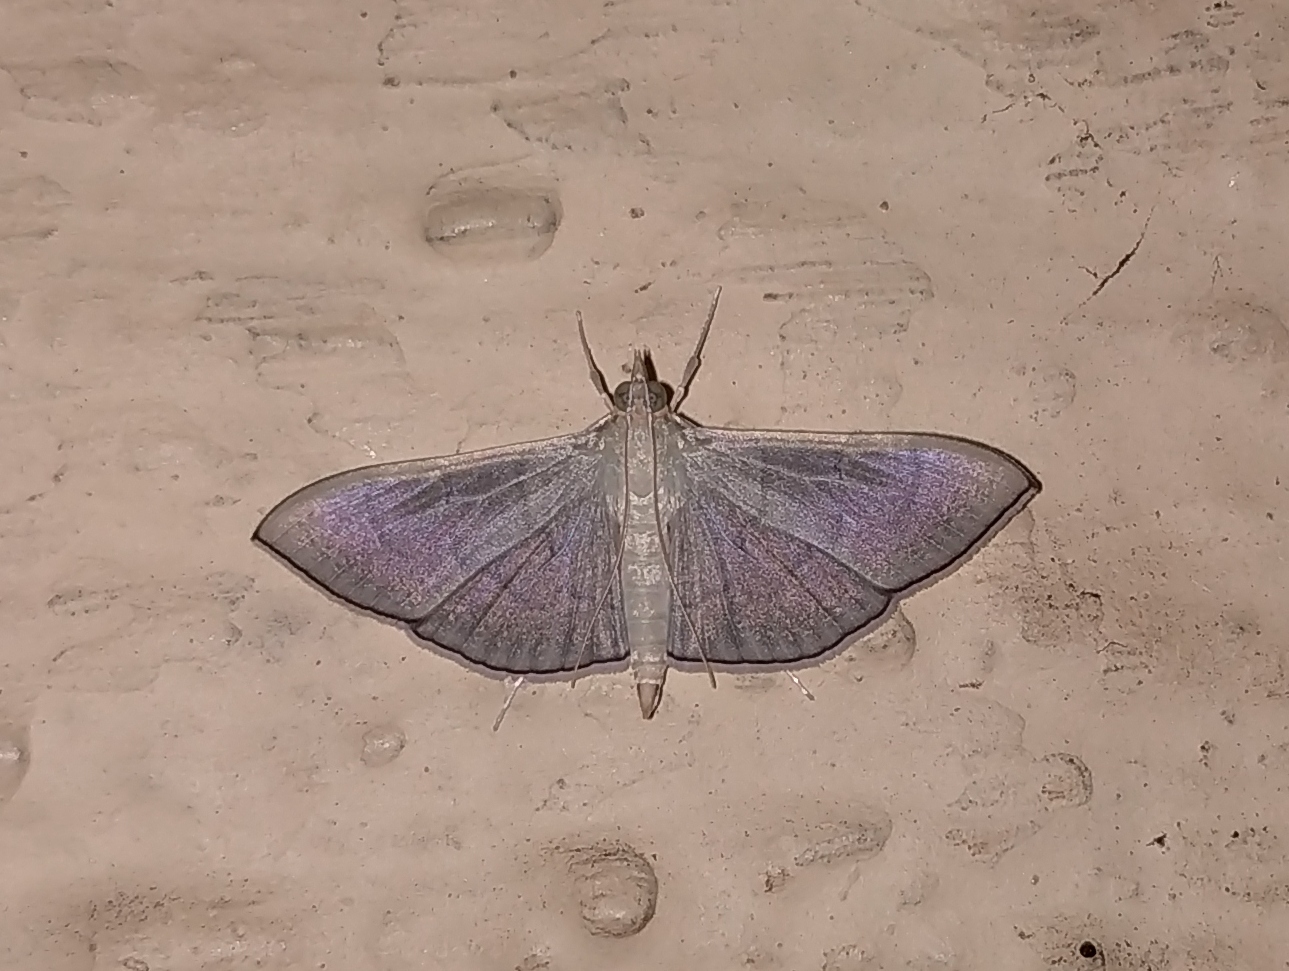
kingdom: Animalia
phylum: Arthropoda
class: Insecta
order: Lepidoptera
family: Crambidae
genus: Lamprophaia
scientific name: Lamprophaia ablactalis
